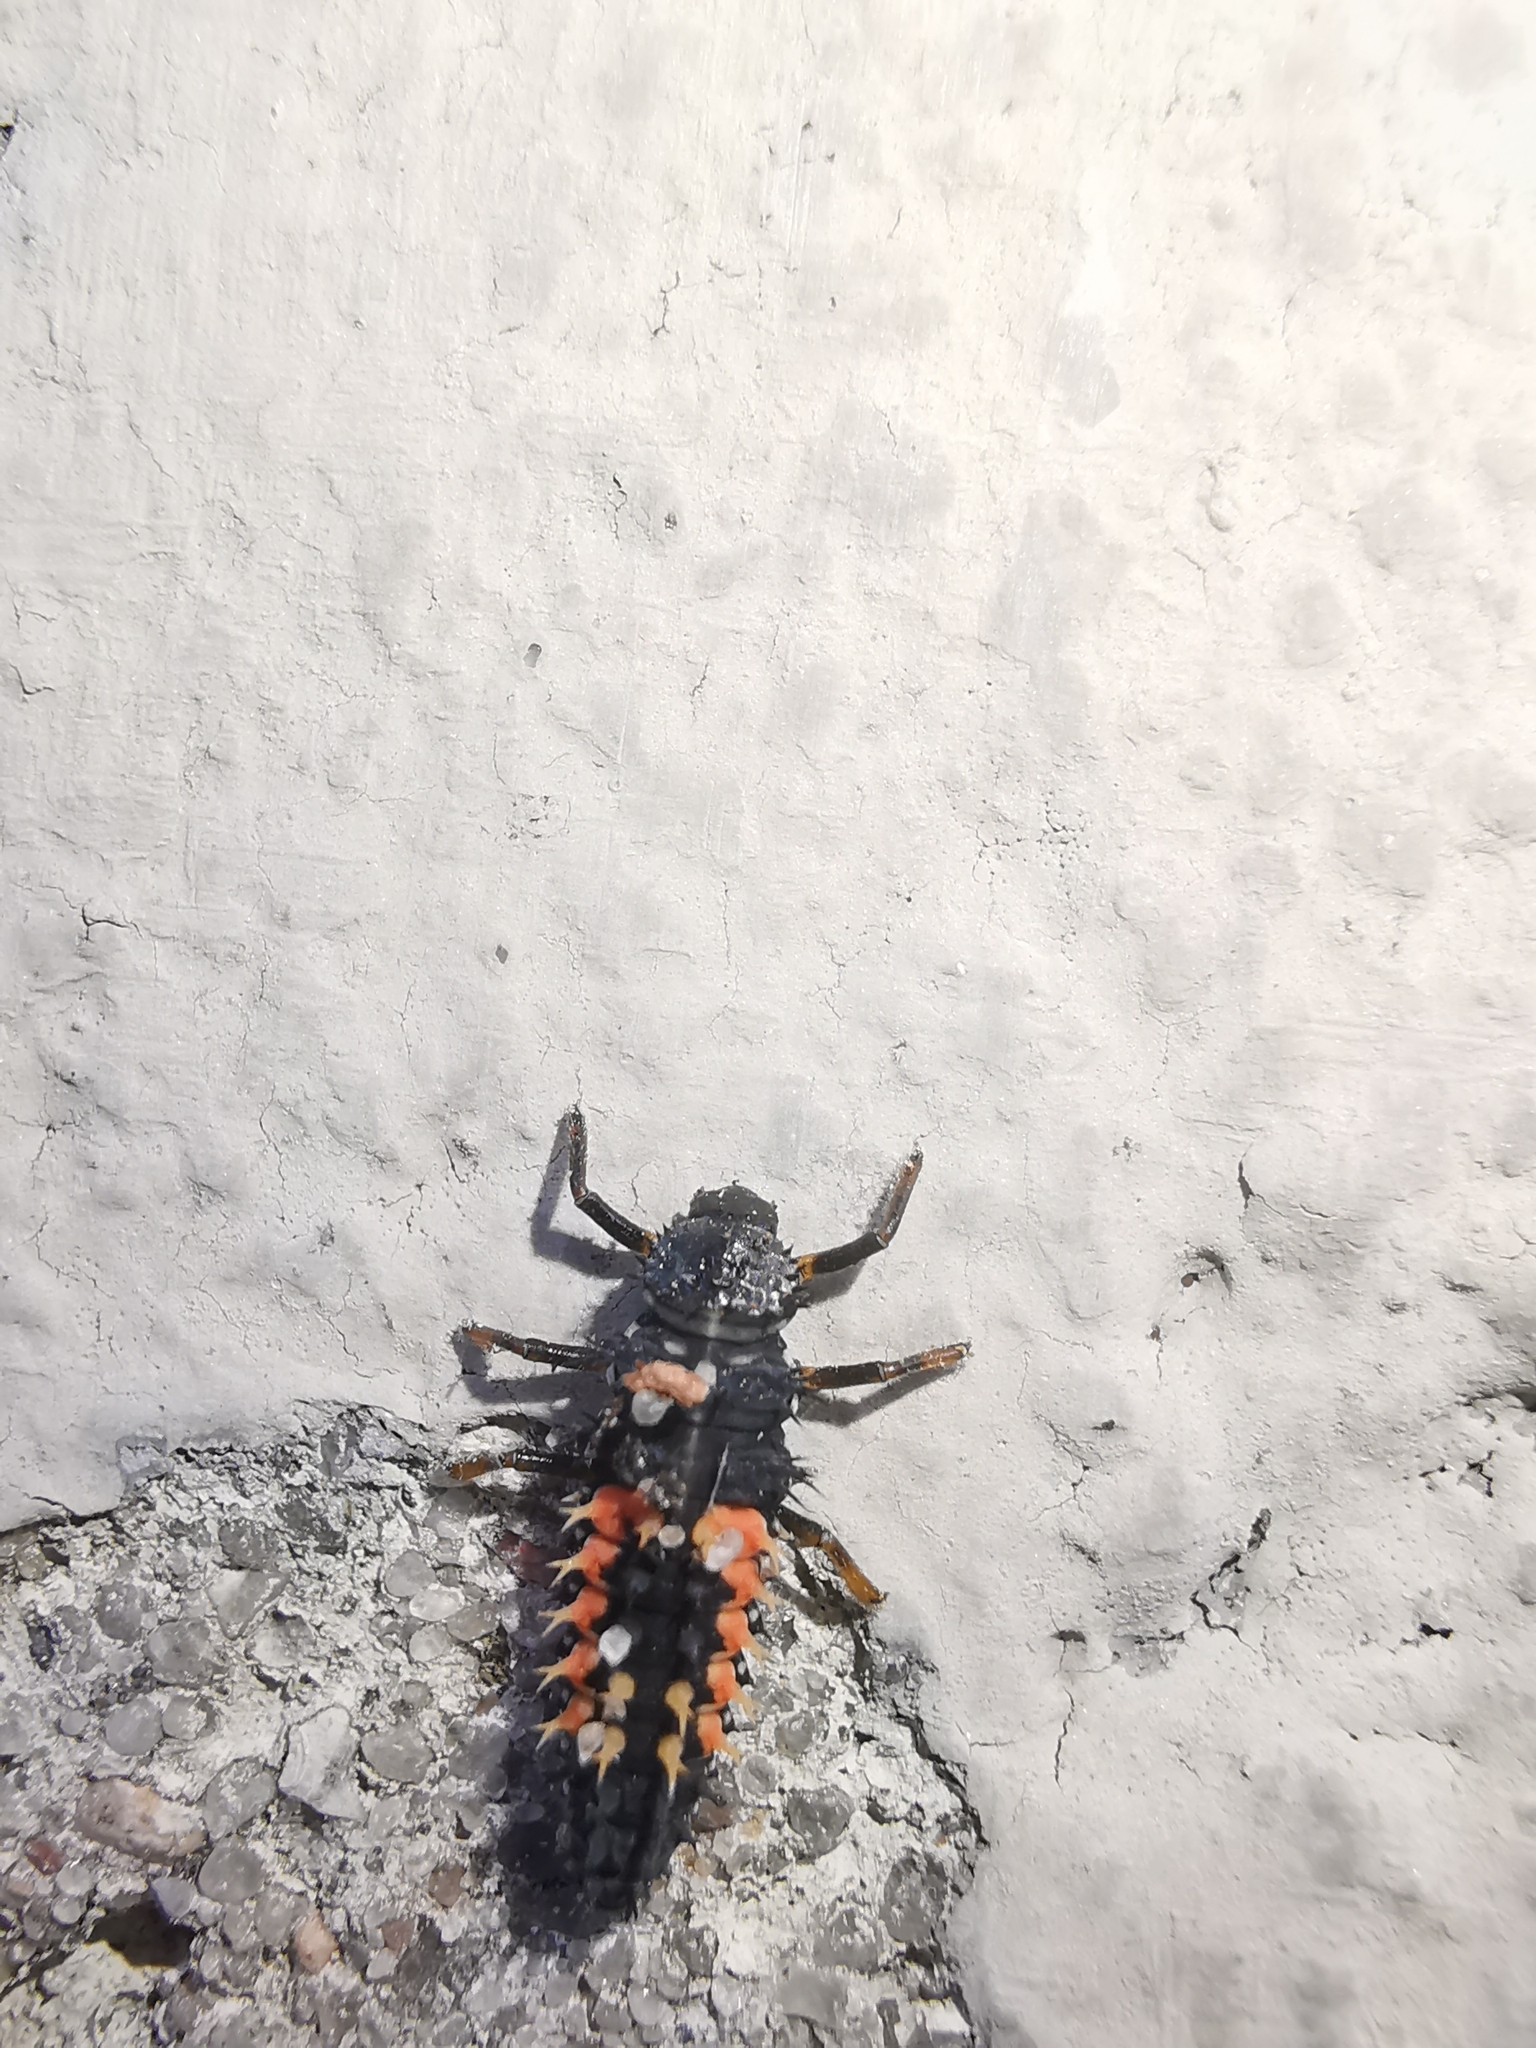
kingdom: Animalia
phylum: Arthropoda
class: Insecta
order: Coleoptera
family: Coccinellidae
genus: Harmonia
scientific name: Harmonia axyridis
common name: Harlequin ladybird
